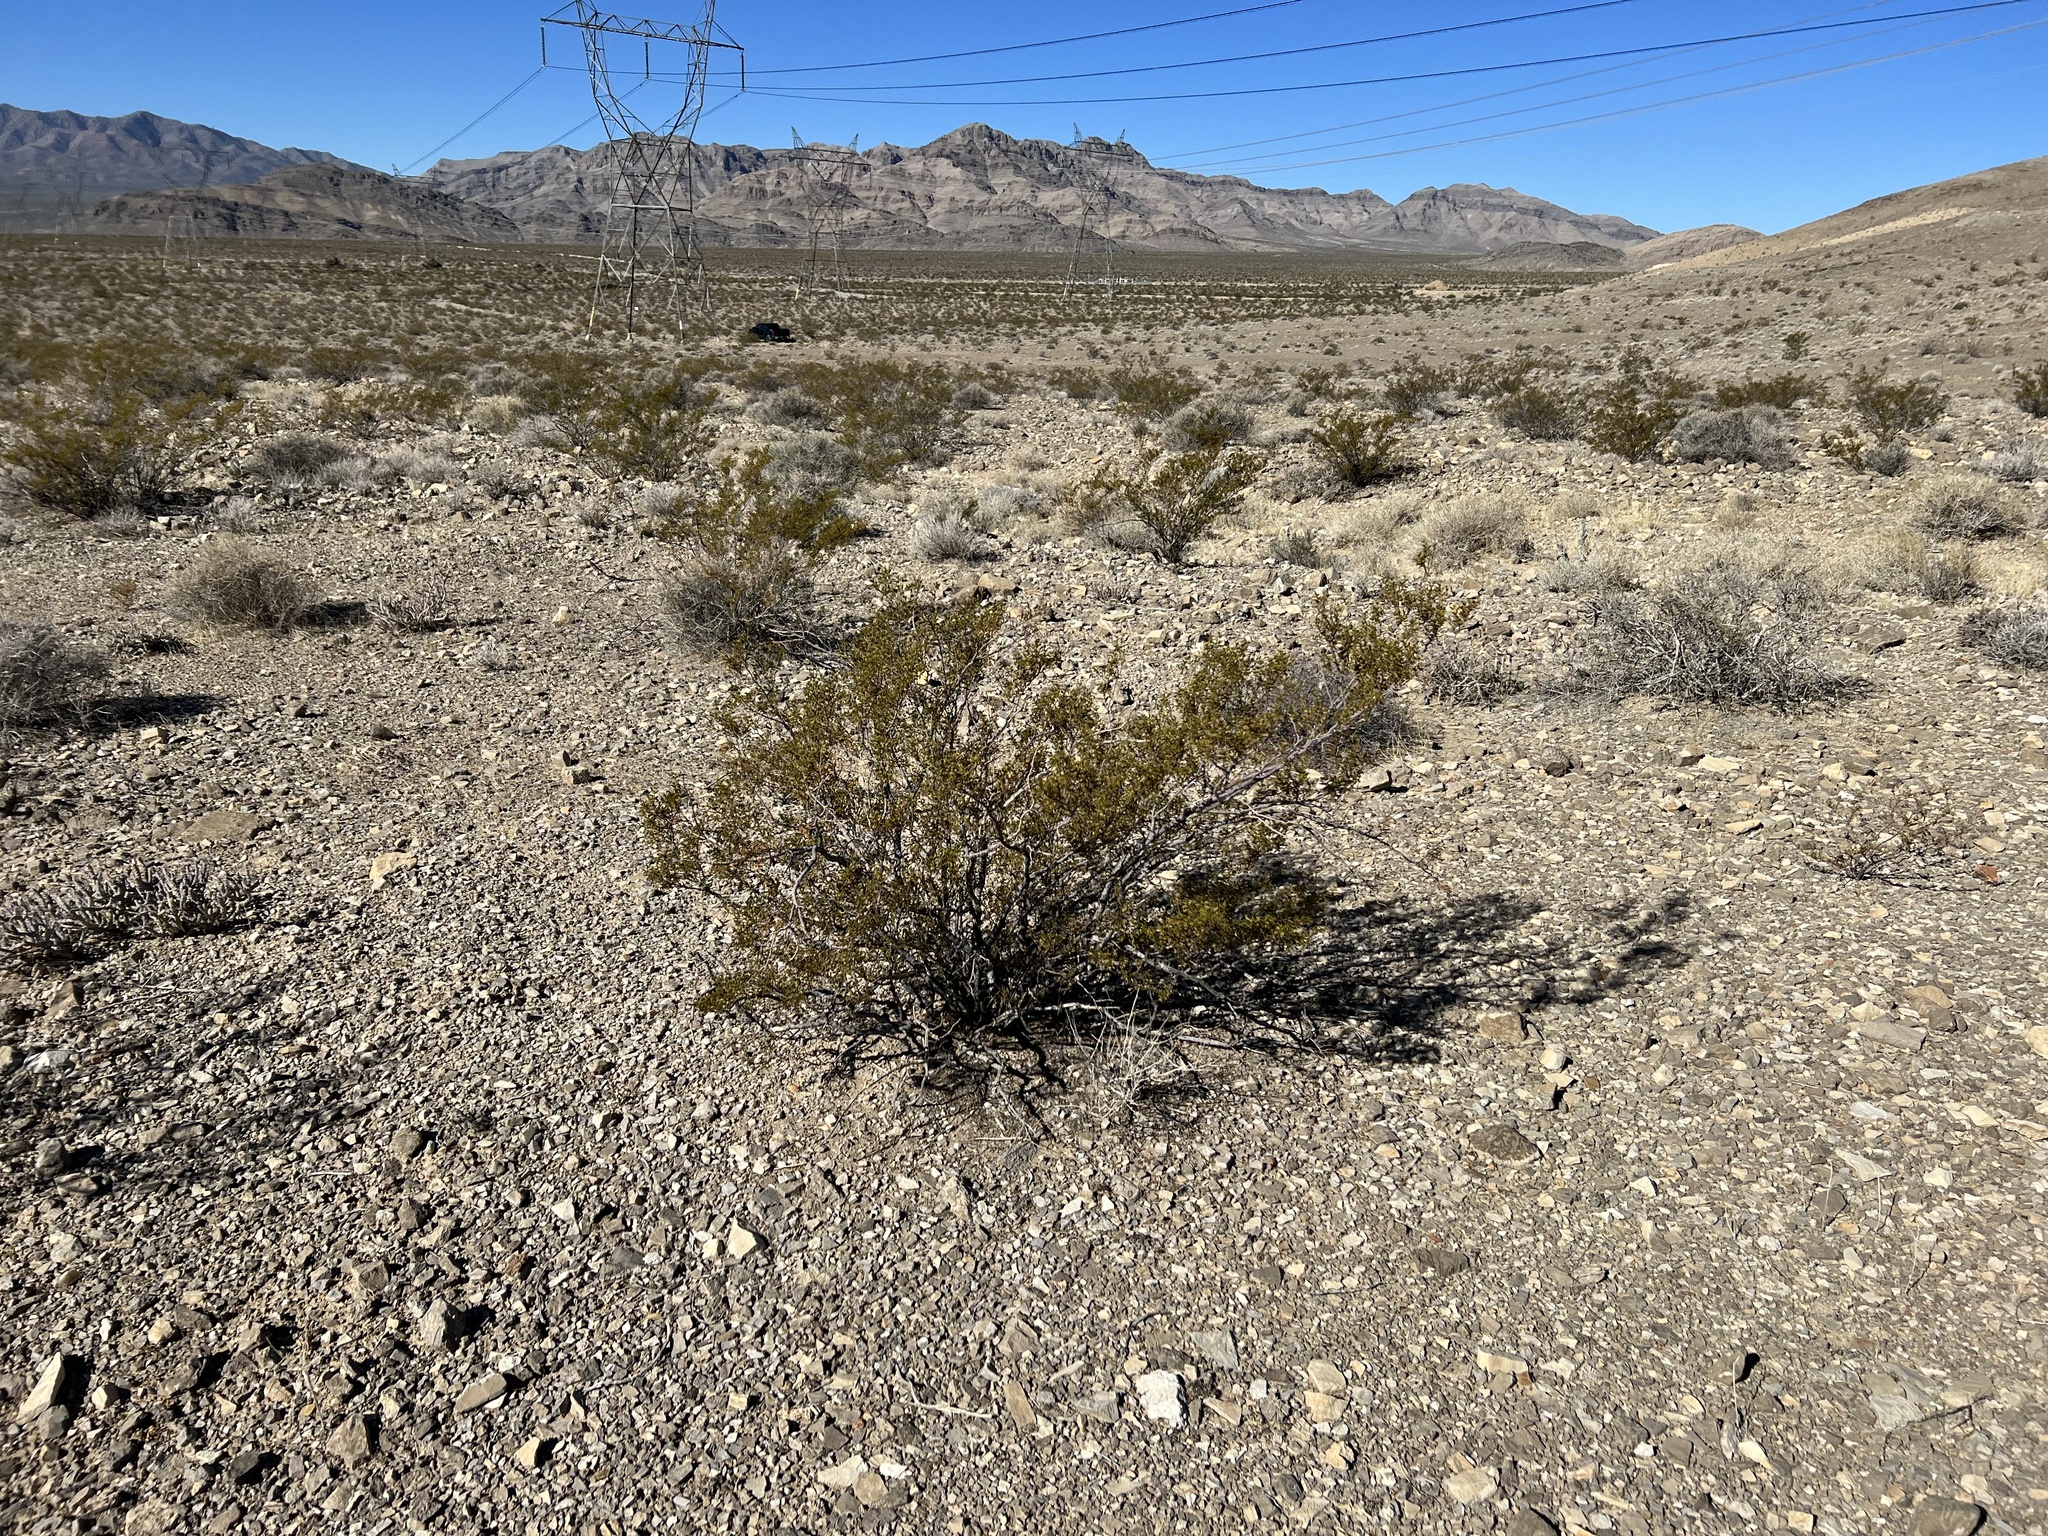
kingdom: Plantae
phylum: Tracheophyta
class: Magnoliopsida
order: Zygophyllales
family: Zygophyllaceae
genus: Larrea
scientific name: Larrea tridentata
